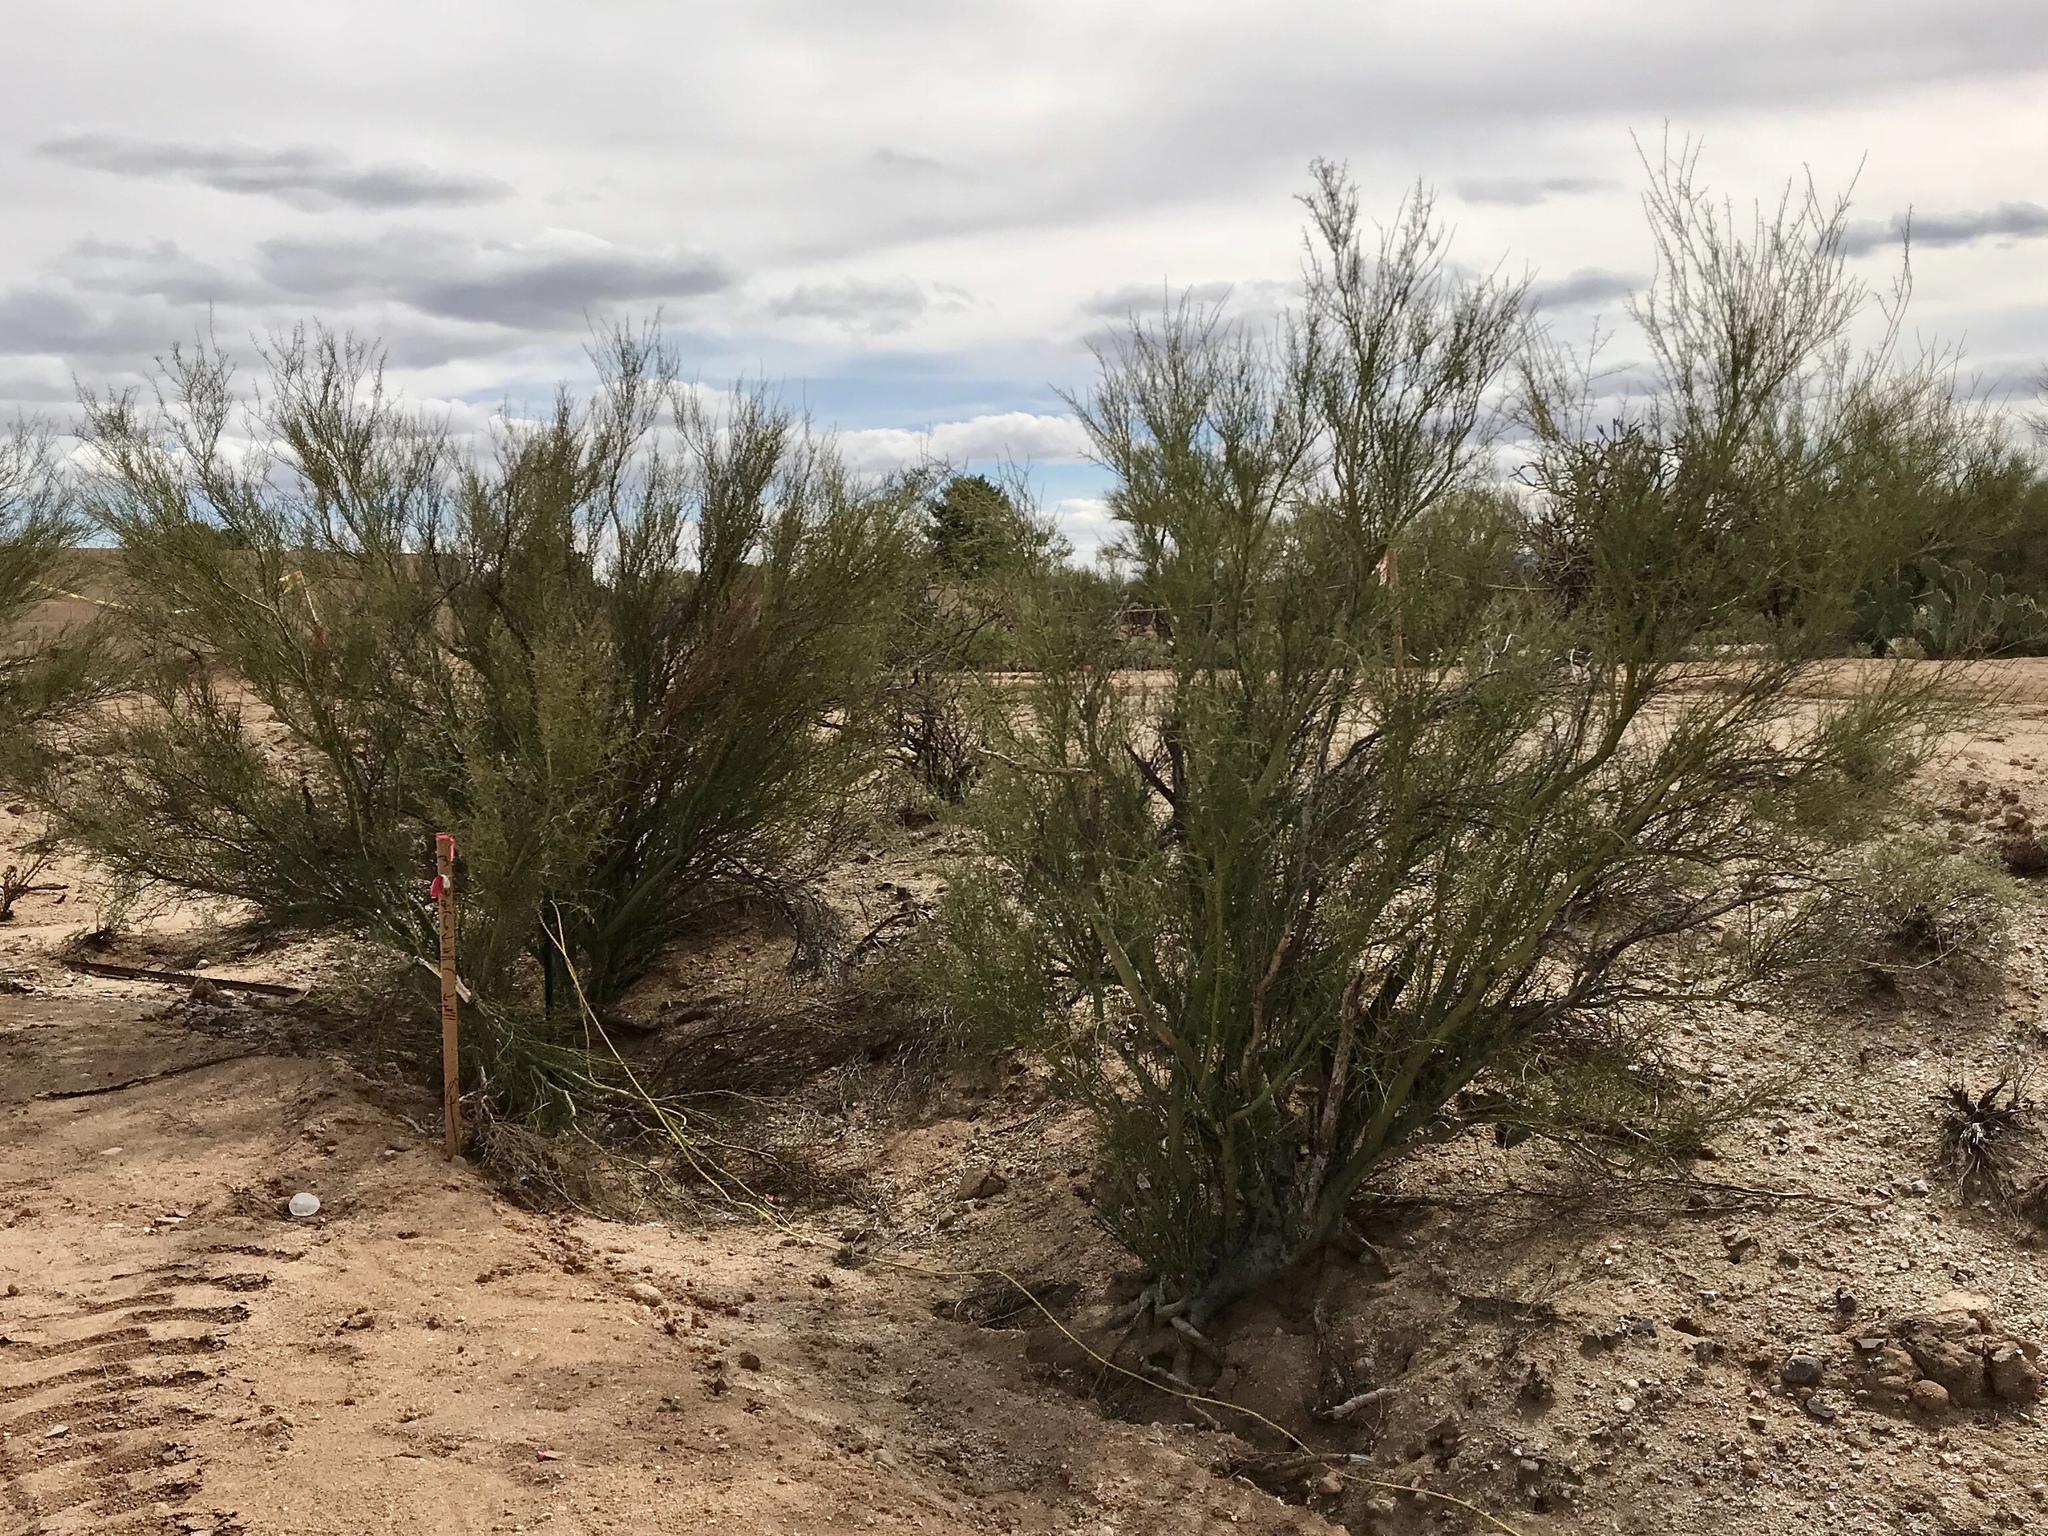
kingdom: Plantae
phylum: Tracheophyta
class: Magnoliopsida
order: Fabales
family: Fabaceae
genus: Parkinsonia
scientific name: Parkinsonia microphylla
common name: Yellow paloverde
